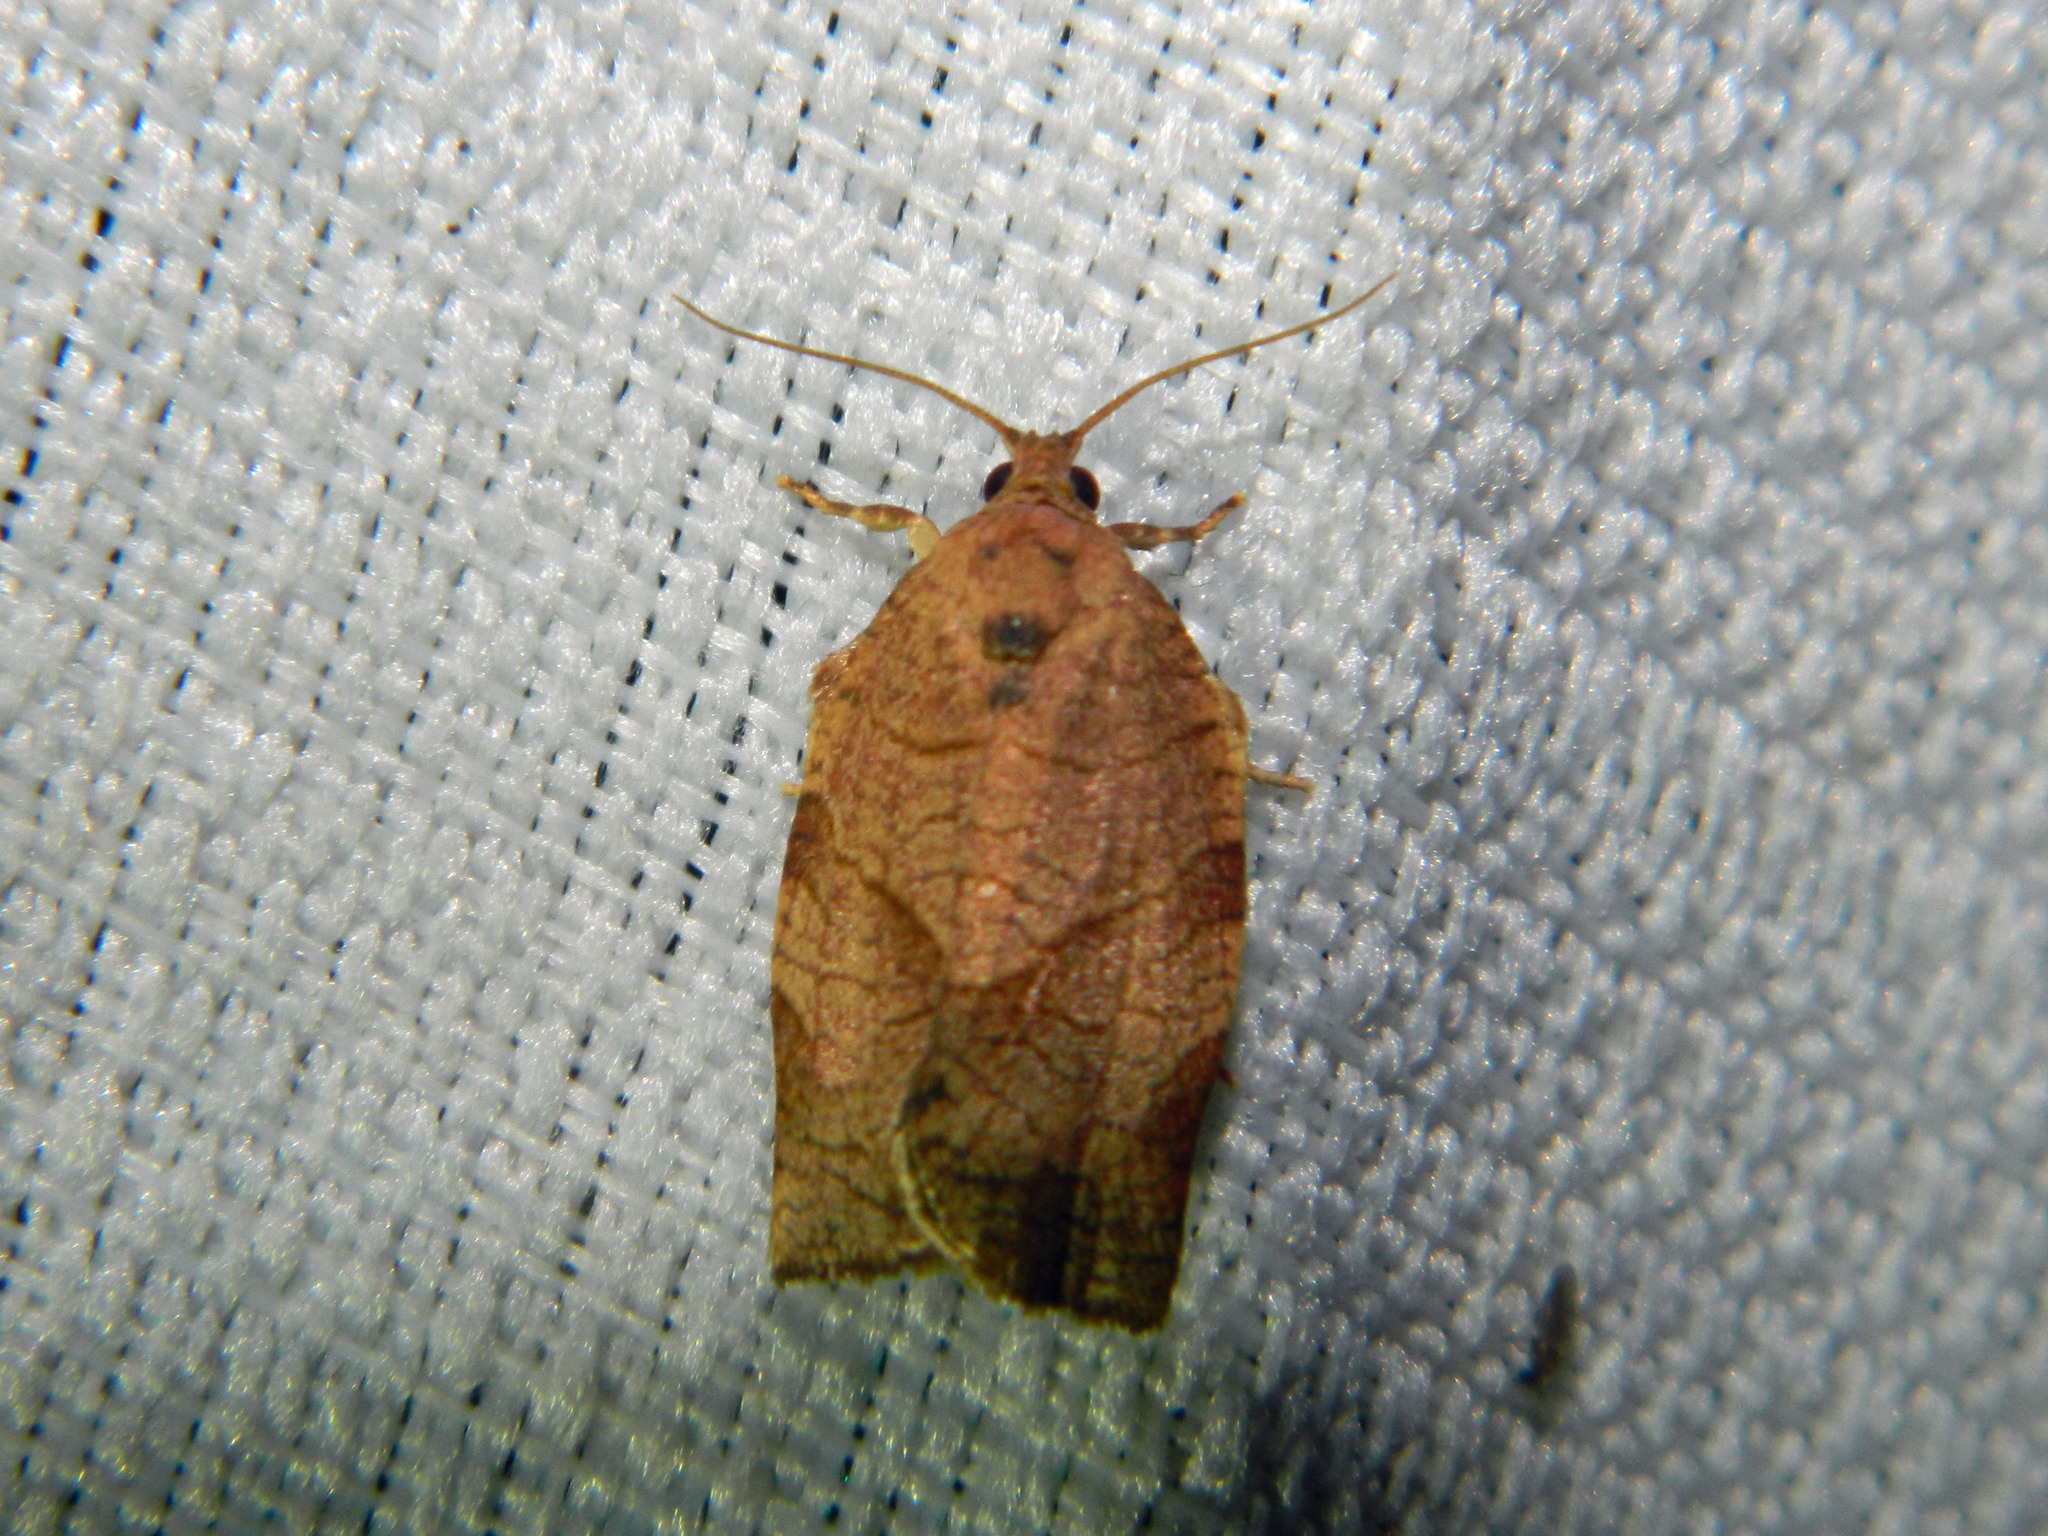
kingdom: Animalia
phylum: Arthropoda
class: Insecta
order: Lepidoptera
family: Tortricidae
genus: Choristoneura
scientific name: Choristoneura rosaceana
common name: Oblique-banded leafroller moth
